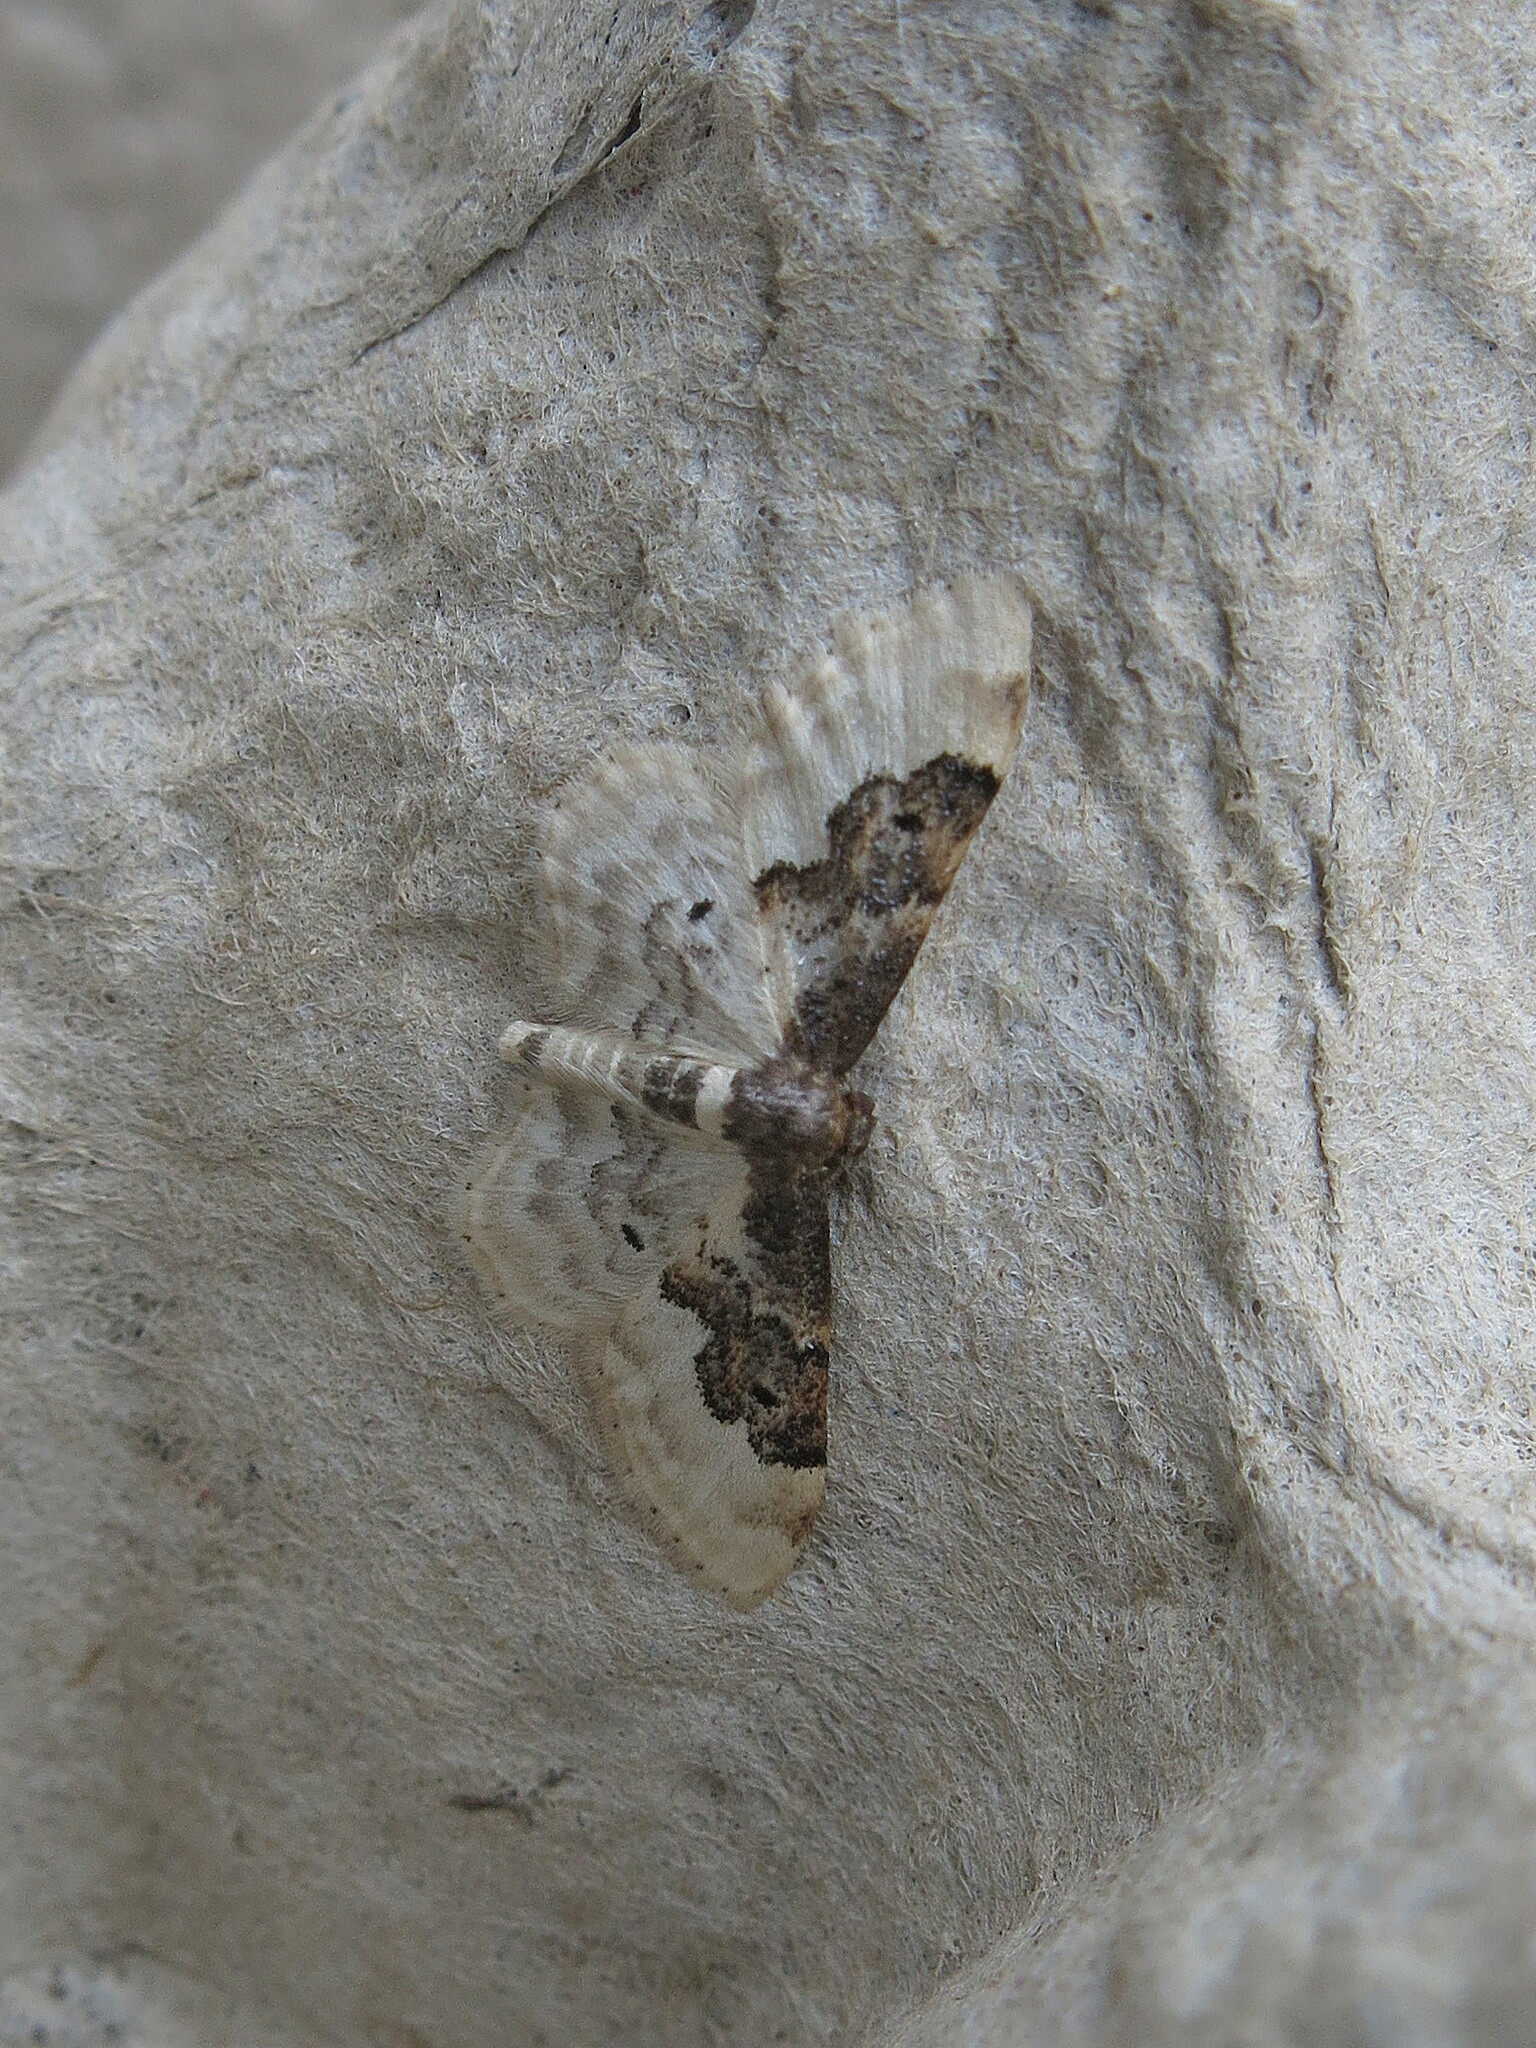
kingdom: Animalia
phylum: Arthropoda
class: Insecta
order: Lepidoptera
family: Geometridae
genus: Idaea
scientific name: Idaea rusticata
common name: Least carpet
